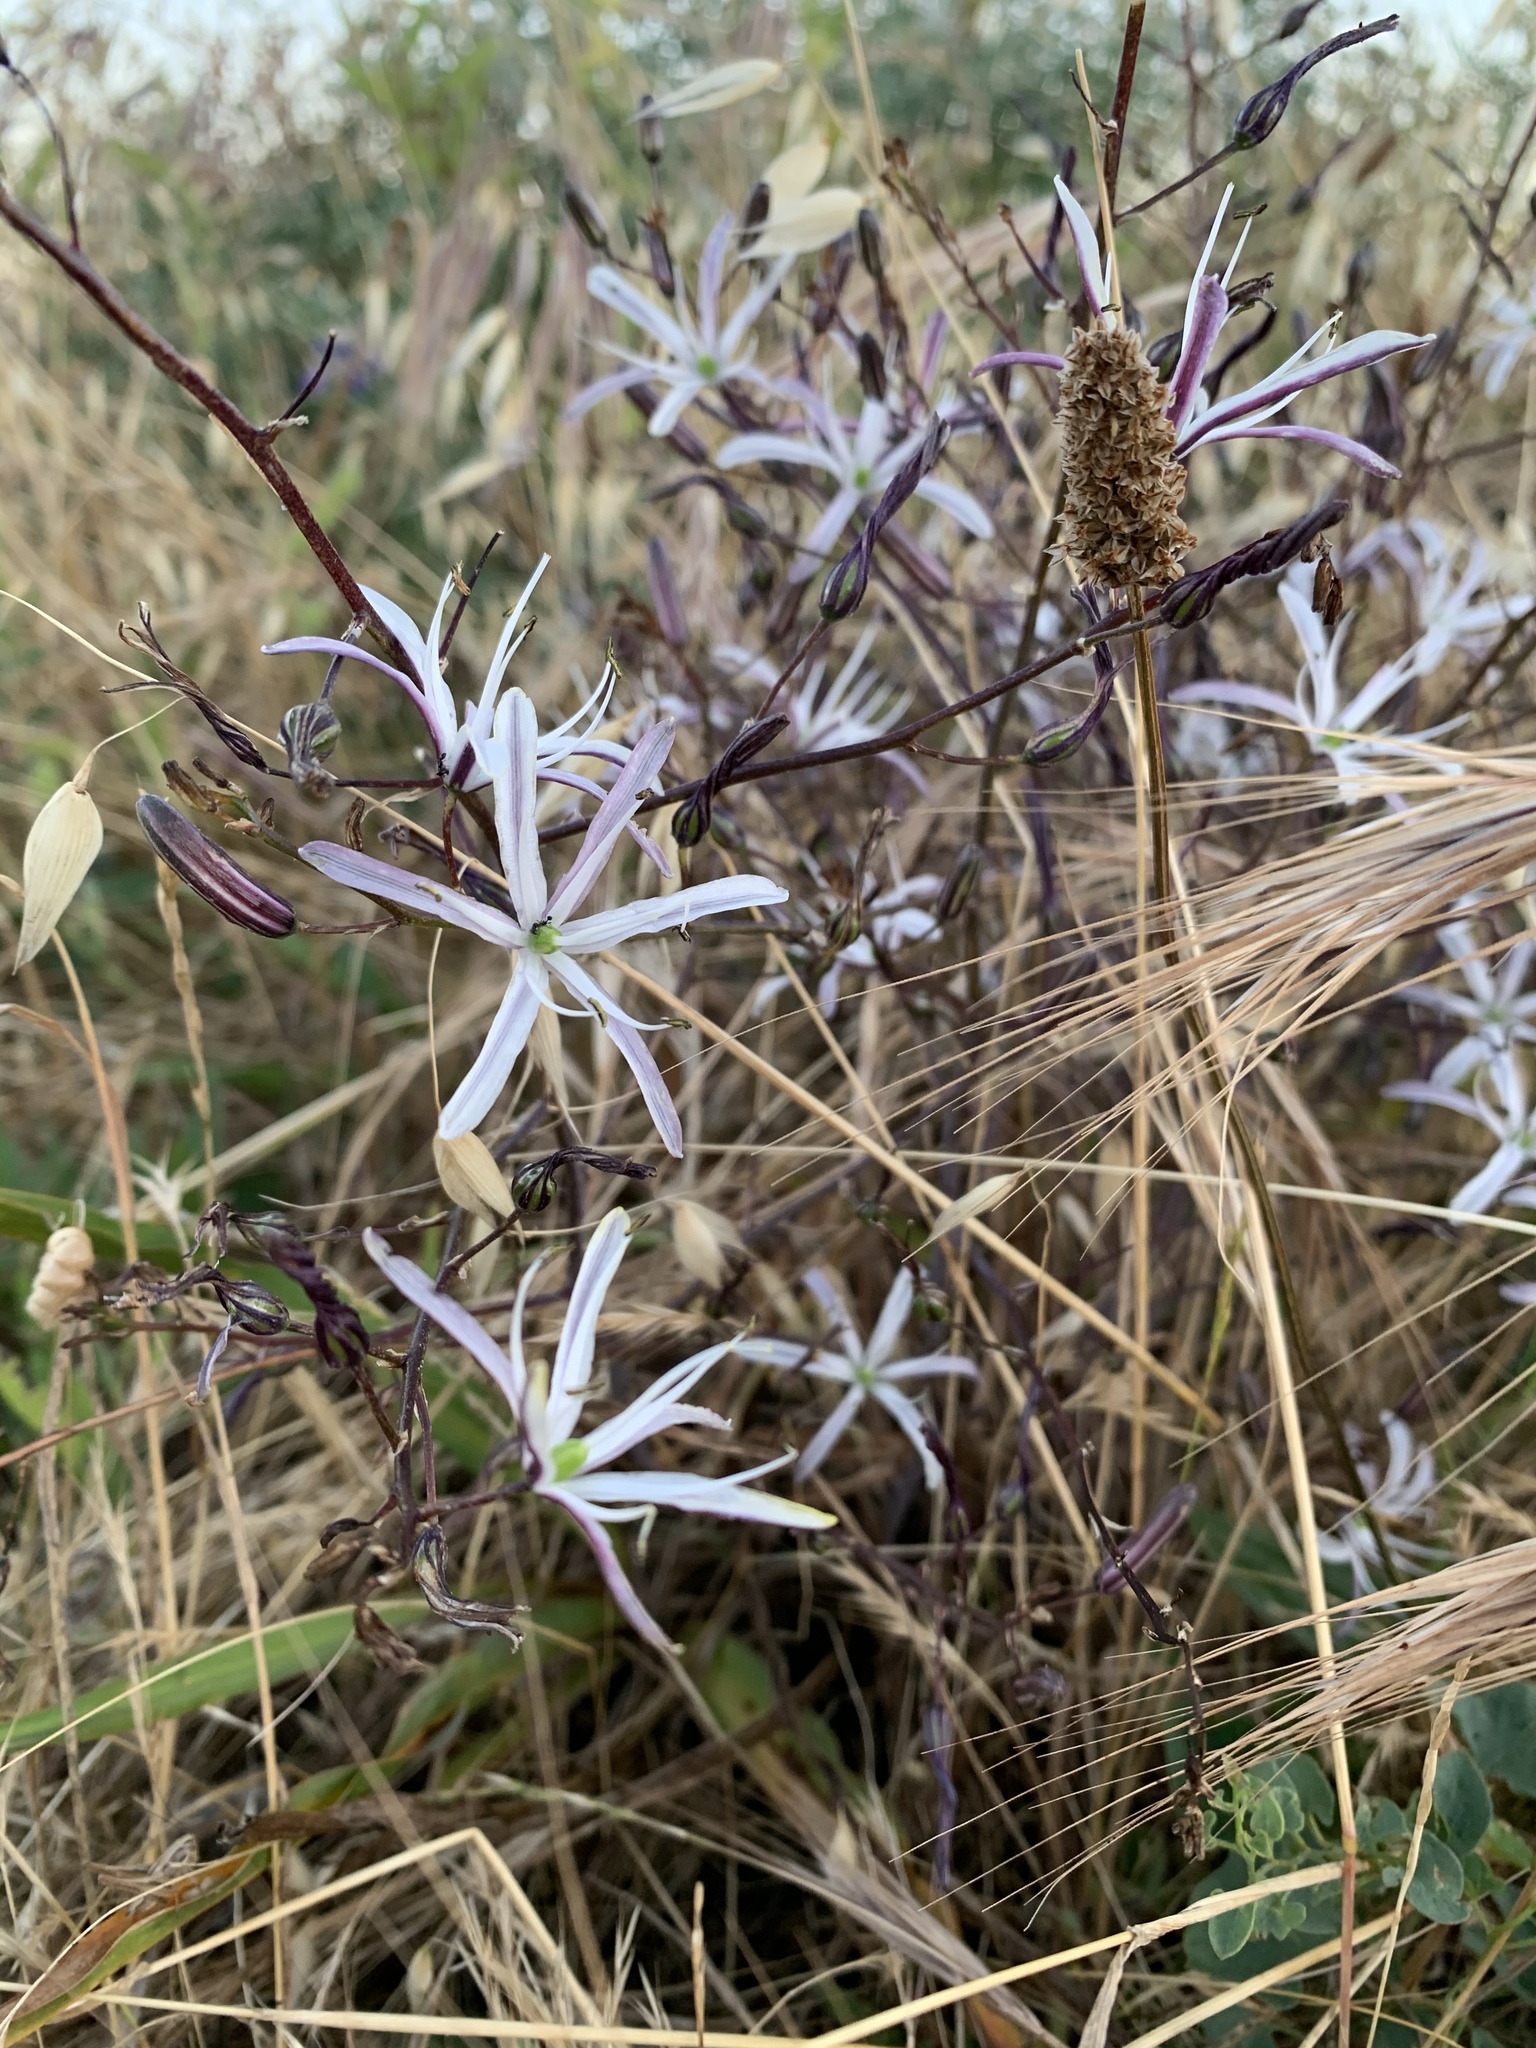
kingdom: Plantae
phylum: Tracheophyta
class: Liliopsida
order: Asparagales
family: Asparagaceae
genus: Chlorogalum
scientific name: Chlorogalum pomeridianum
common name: Amole
